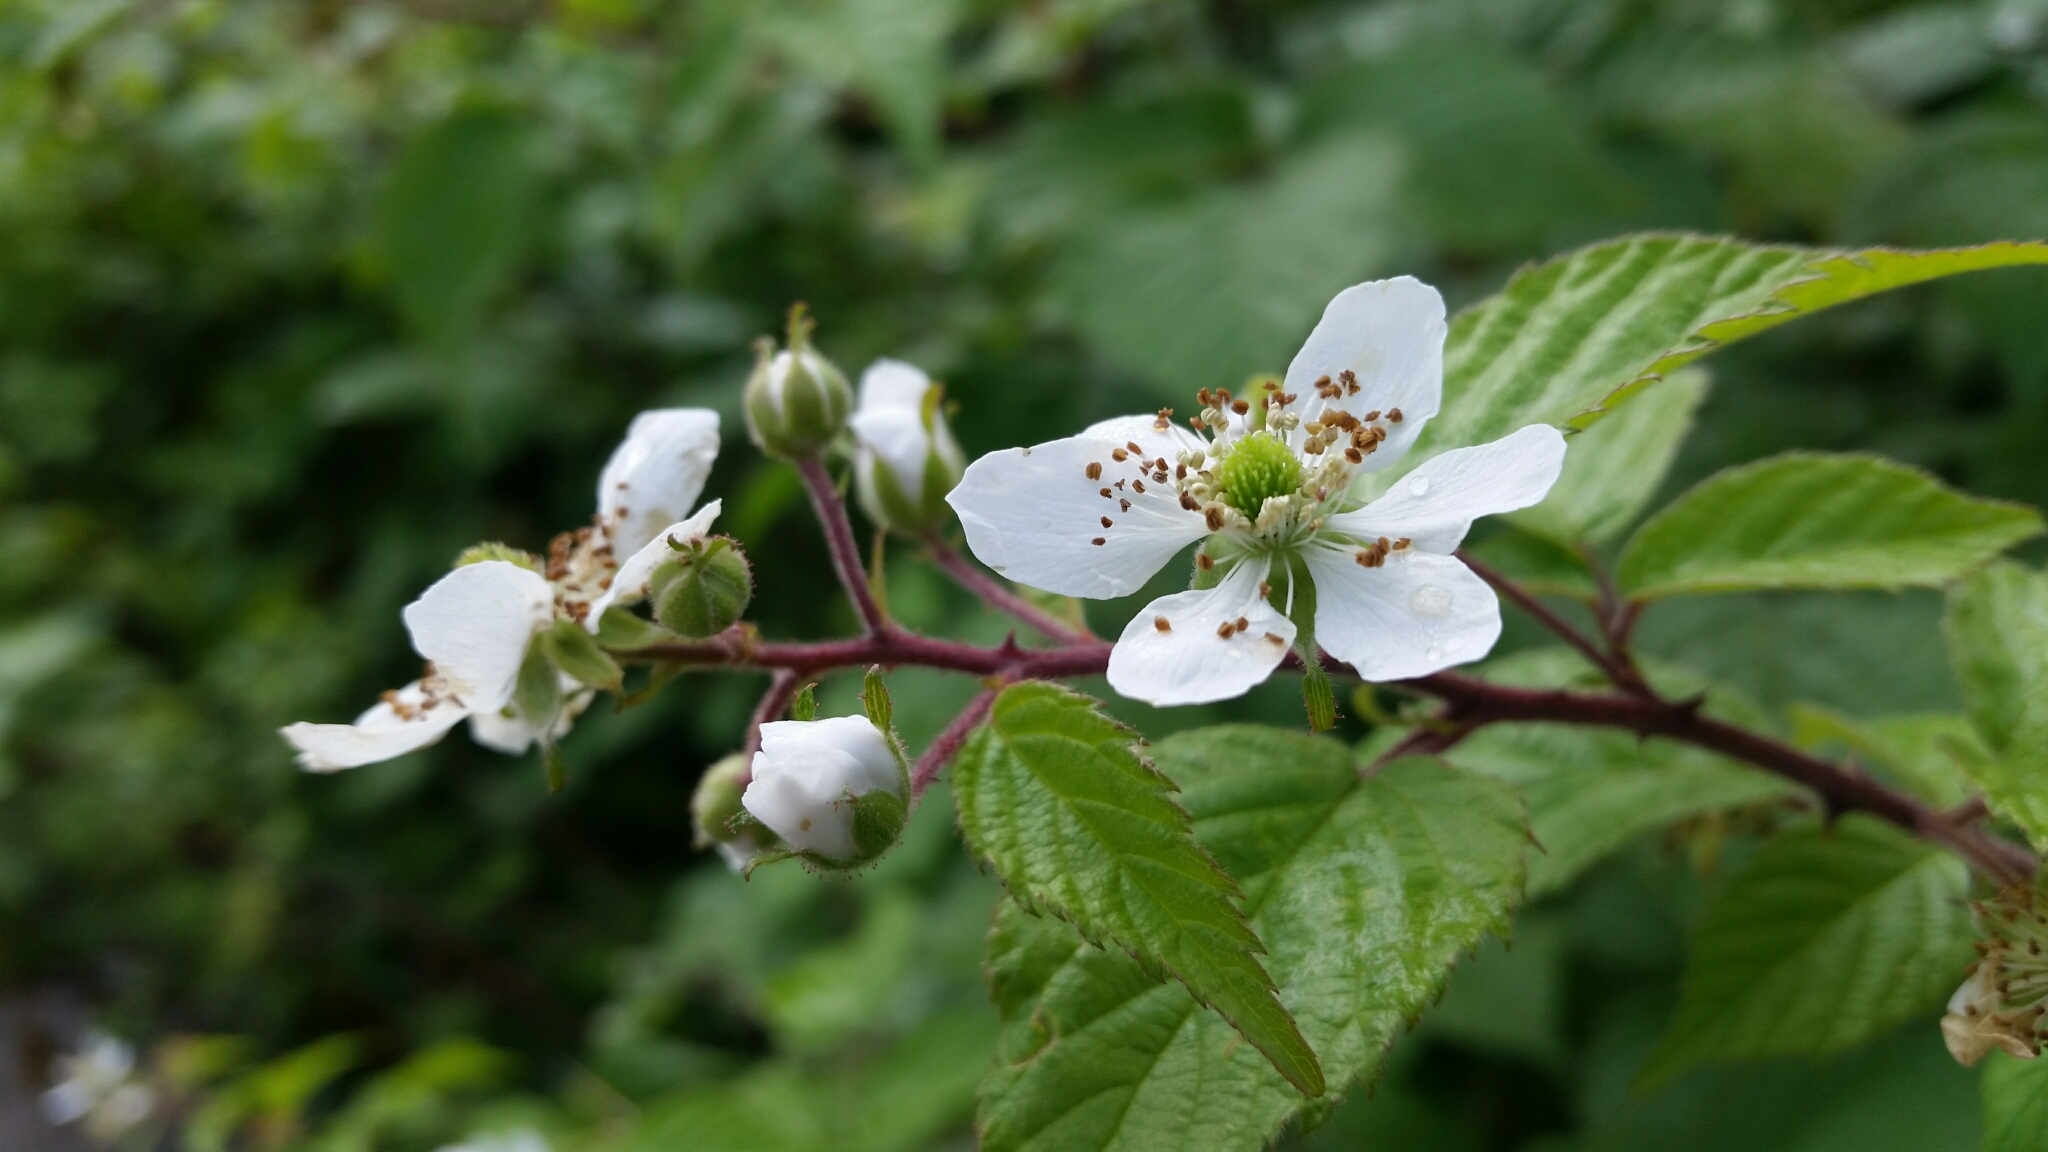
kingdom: Plantae
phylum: Tracheophyta
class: Magnoliopsida
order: Rosales
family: Rosaceae
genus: Rubus
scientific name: Rubus allegheniensis
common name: Allegheny blackberry
